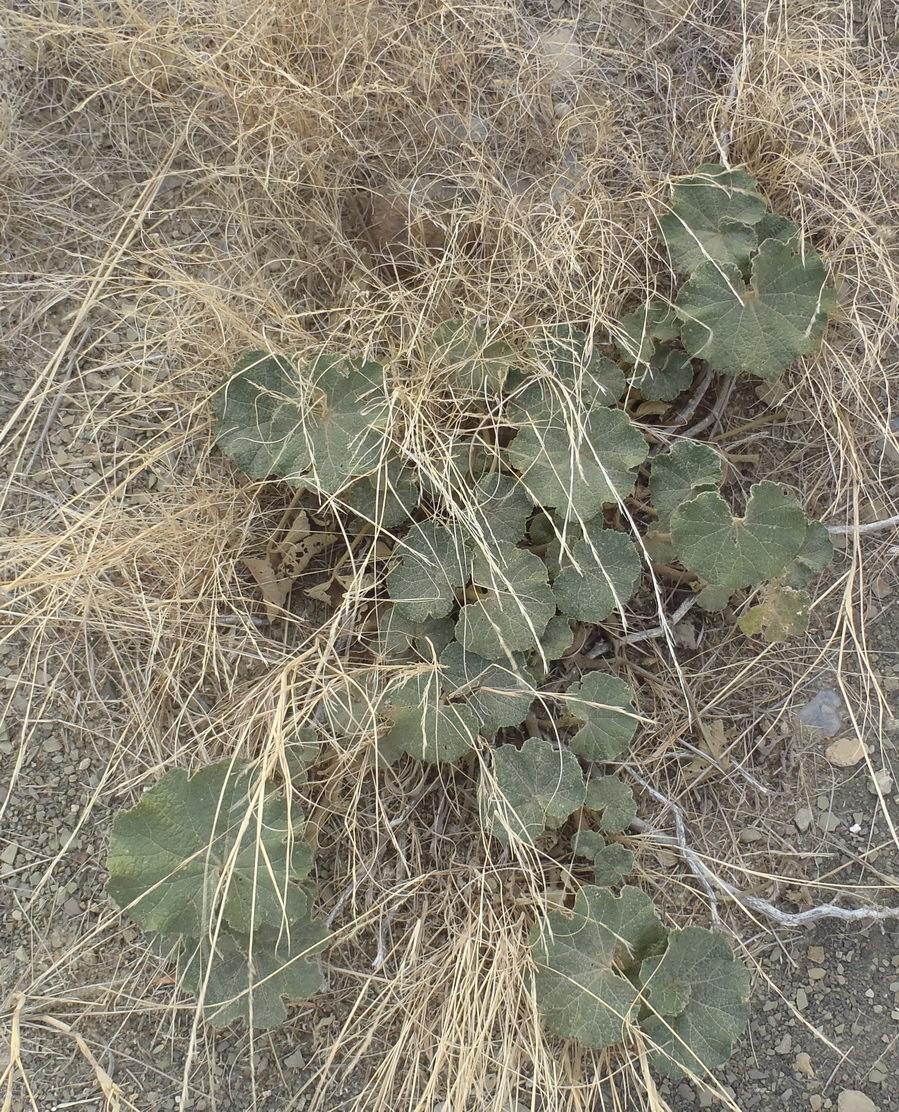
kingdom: Plantae
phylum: Tracheophyta
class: Magnoliopsida
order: Malvales
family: Malvaceae
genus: Radyera
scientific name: Radyera urens
